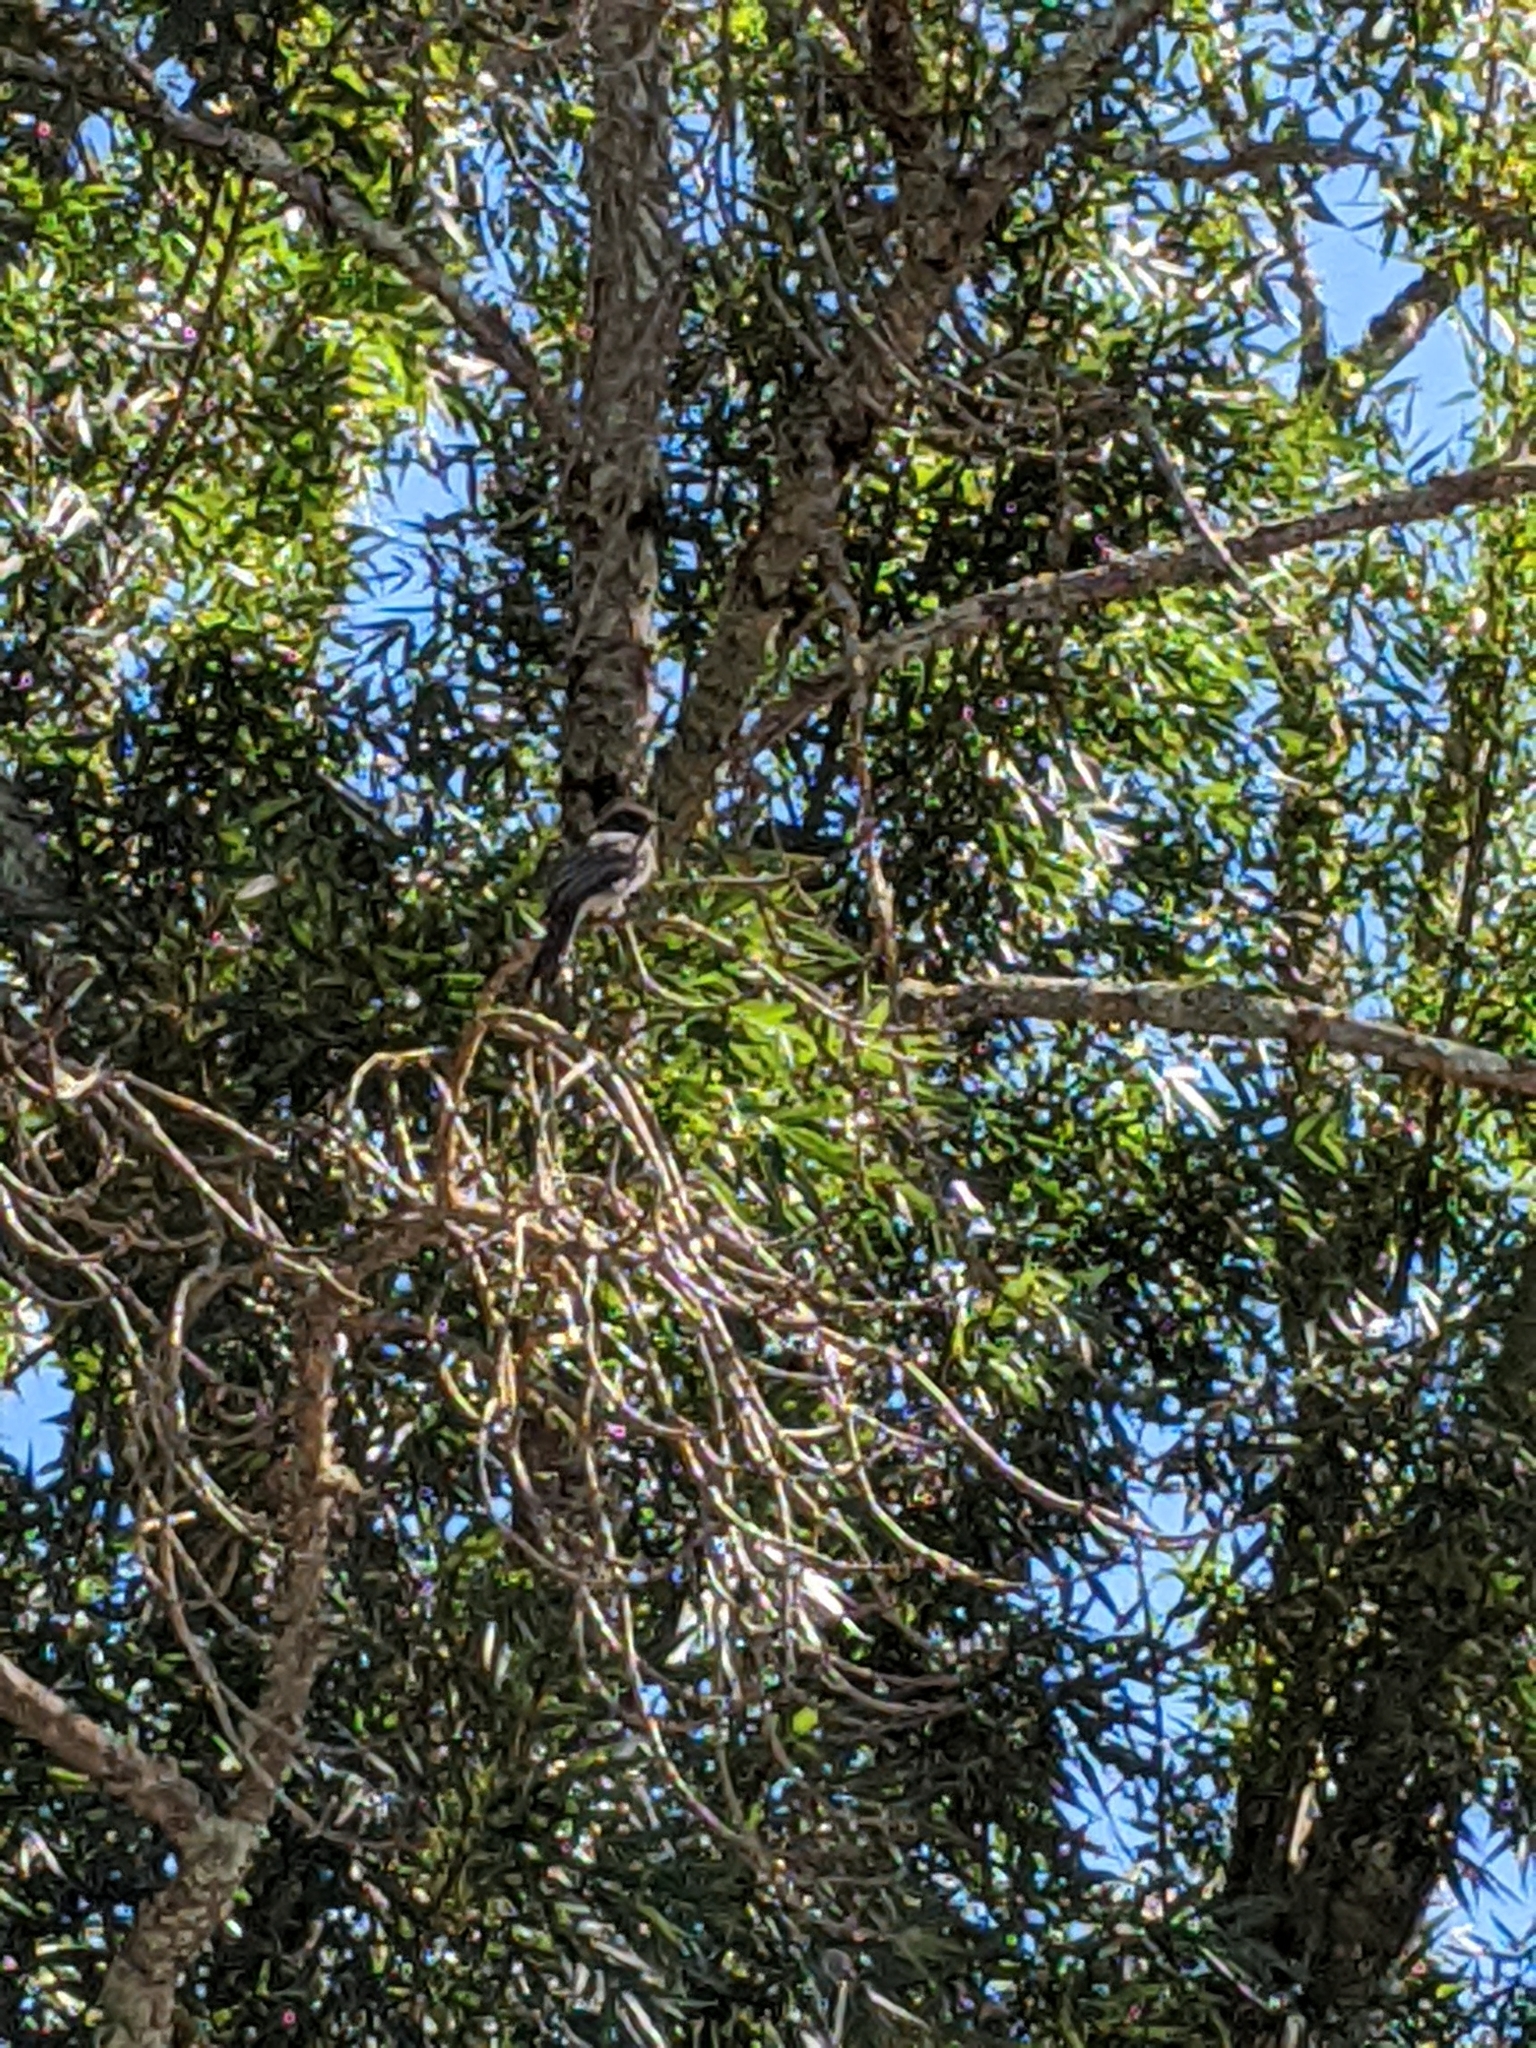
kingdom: Animalia
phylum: Chordata
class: Aves
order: Passeriformes
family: Tyrannidae
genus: Sayornis
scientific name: Sayornis nigricans
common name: Black phoebe
